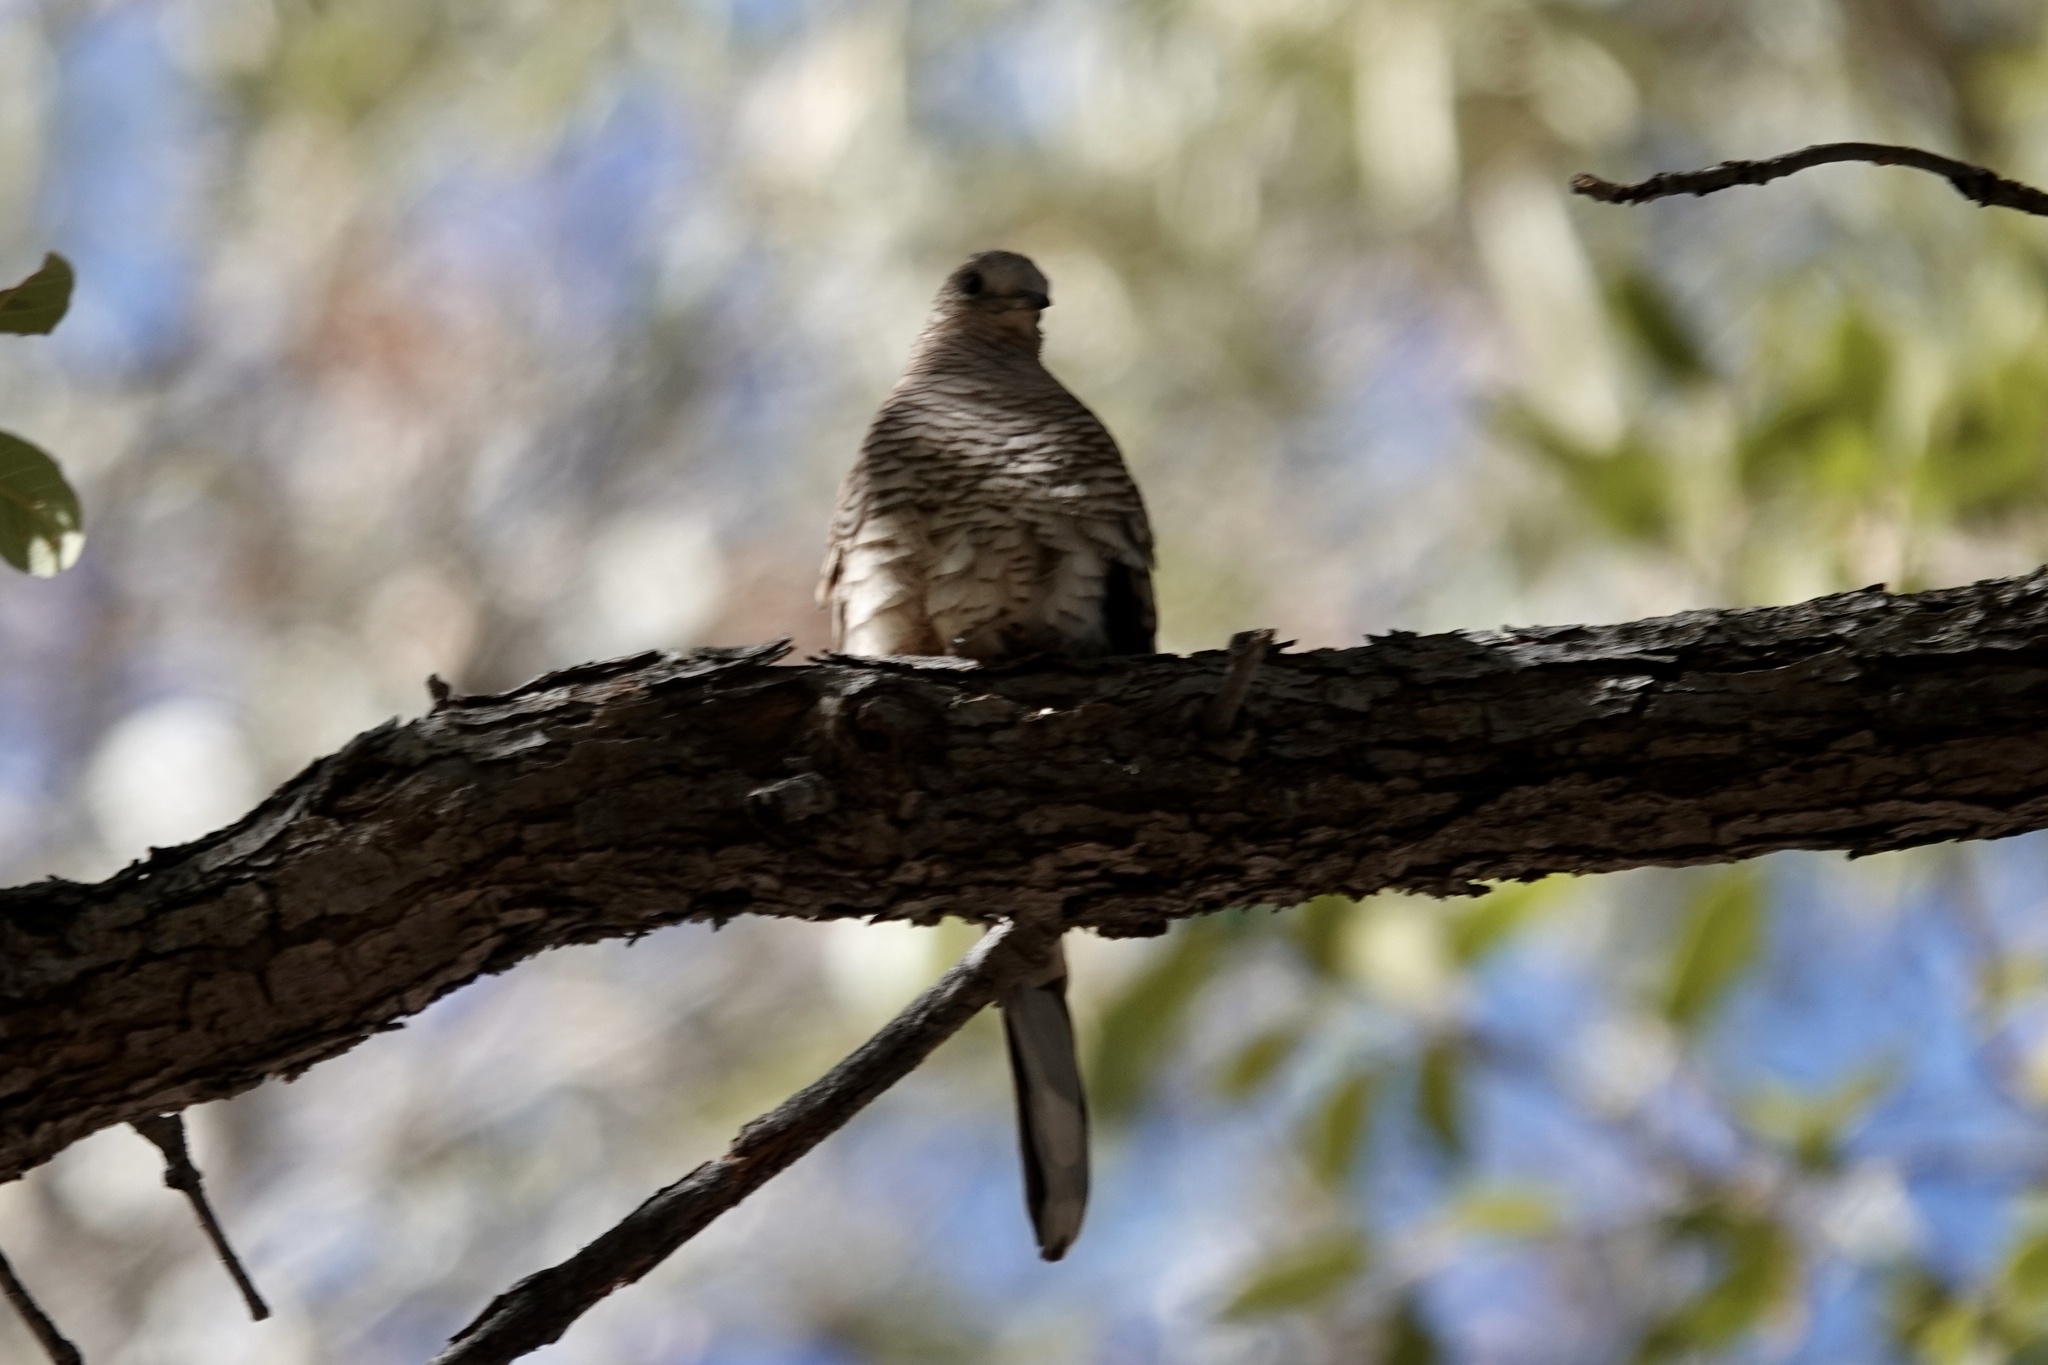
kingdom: Animalia
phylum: Chordata
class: Aves
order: Columbiformes
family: Columbidae
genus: Columbina
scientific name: Columbina inca
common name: Inca dove
